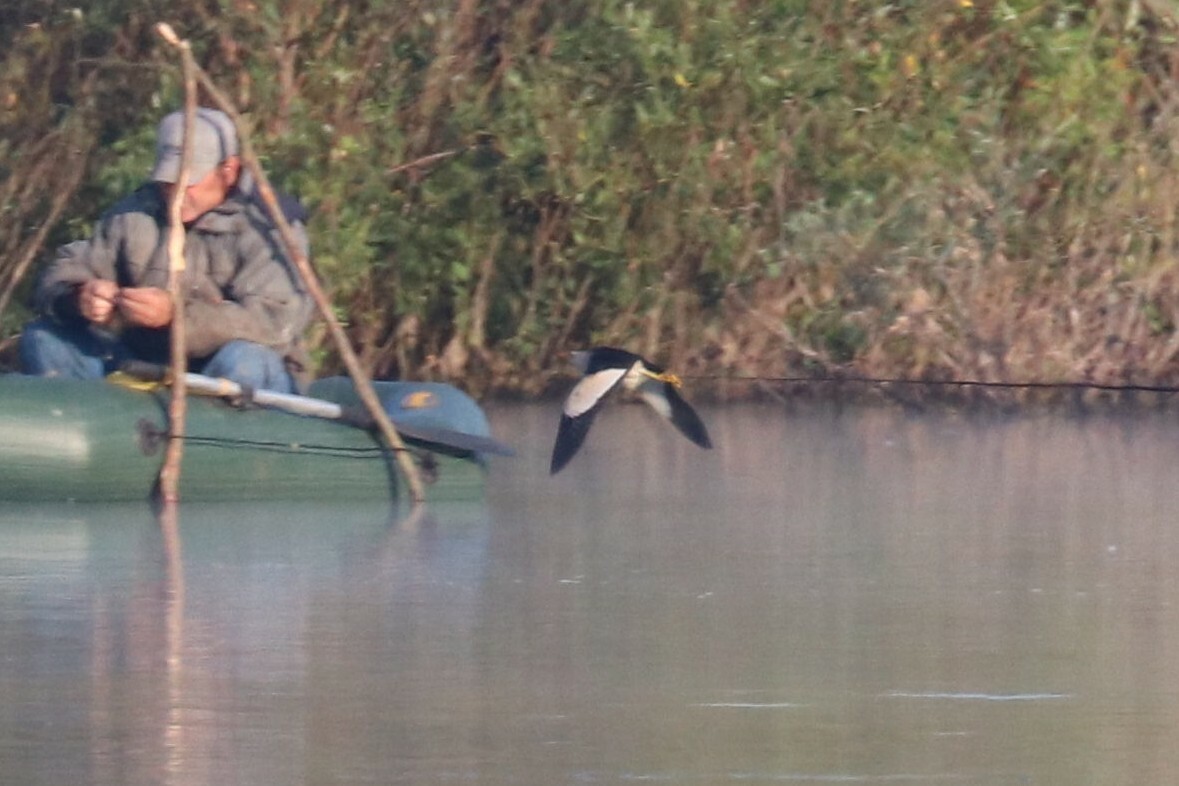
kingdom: Animalia
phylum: Chordata
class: Aves
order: Pelecaniformes
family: Ardeidae
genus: Ixobrychus
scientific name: Ixobrychus minutus
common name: Little bittern
